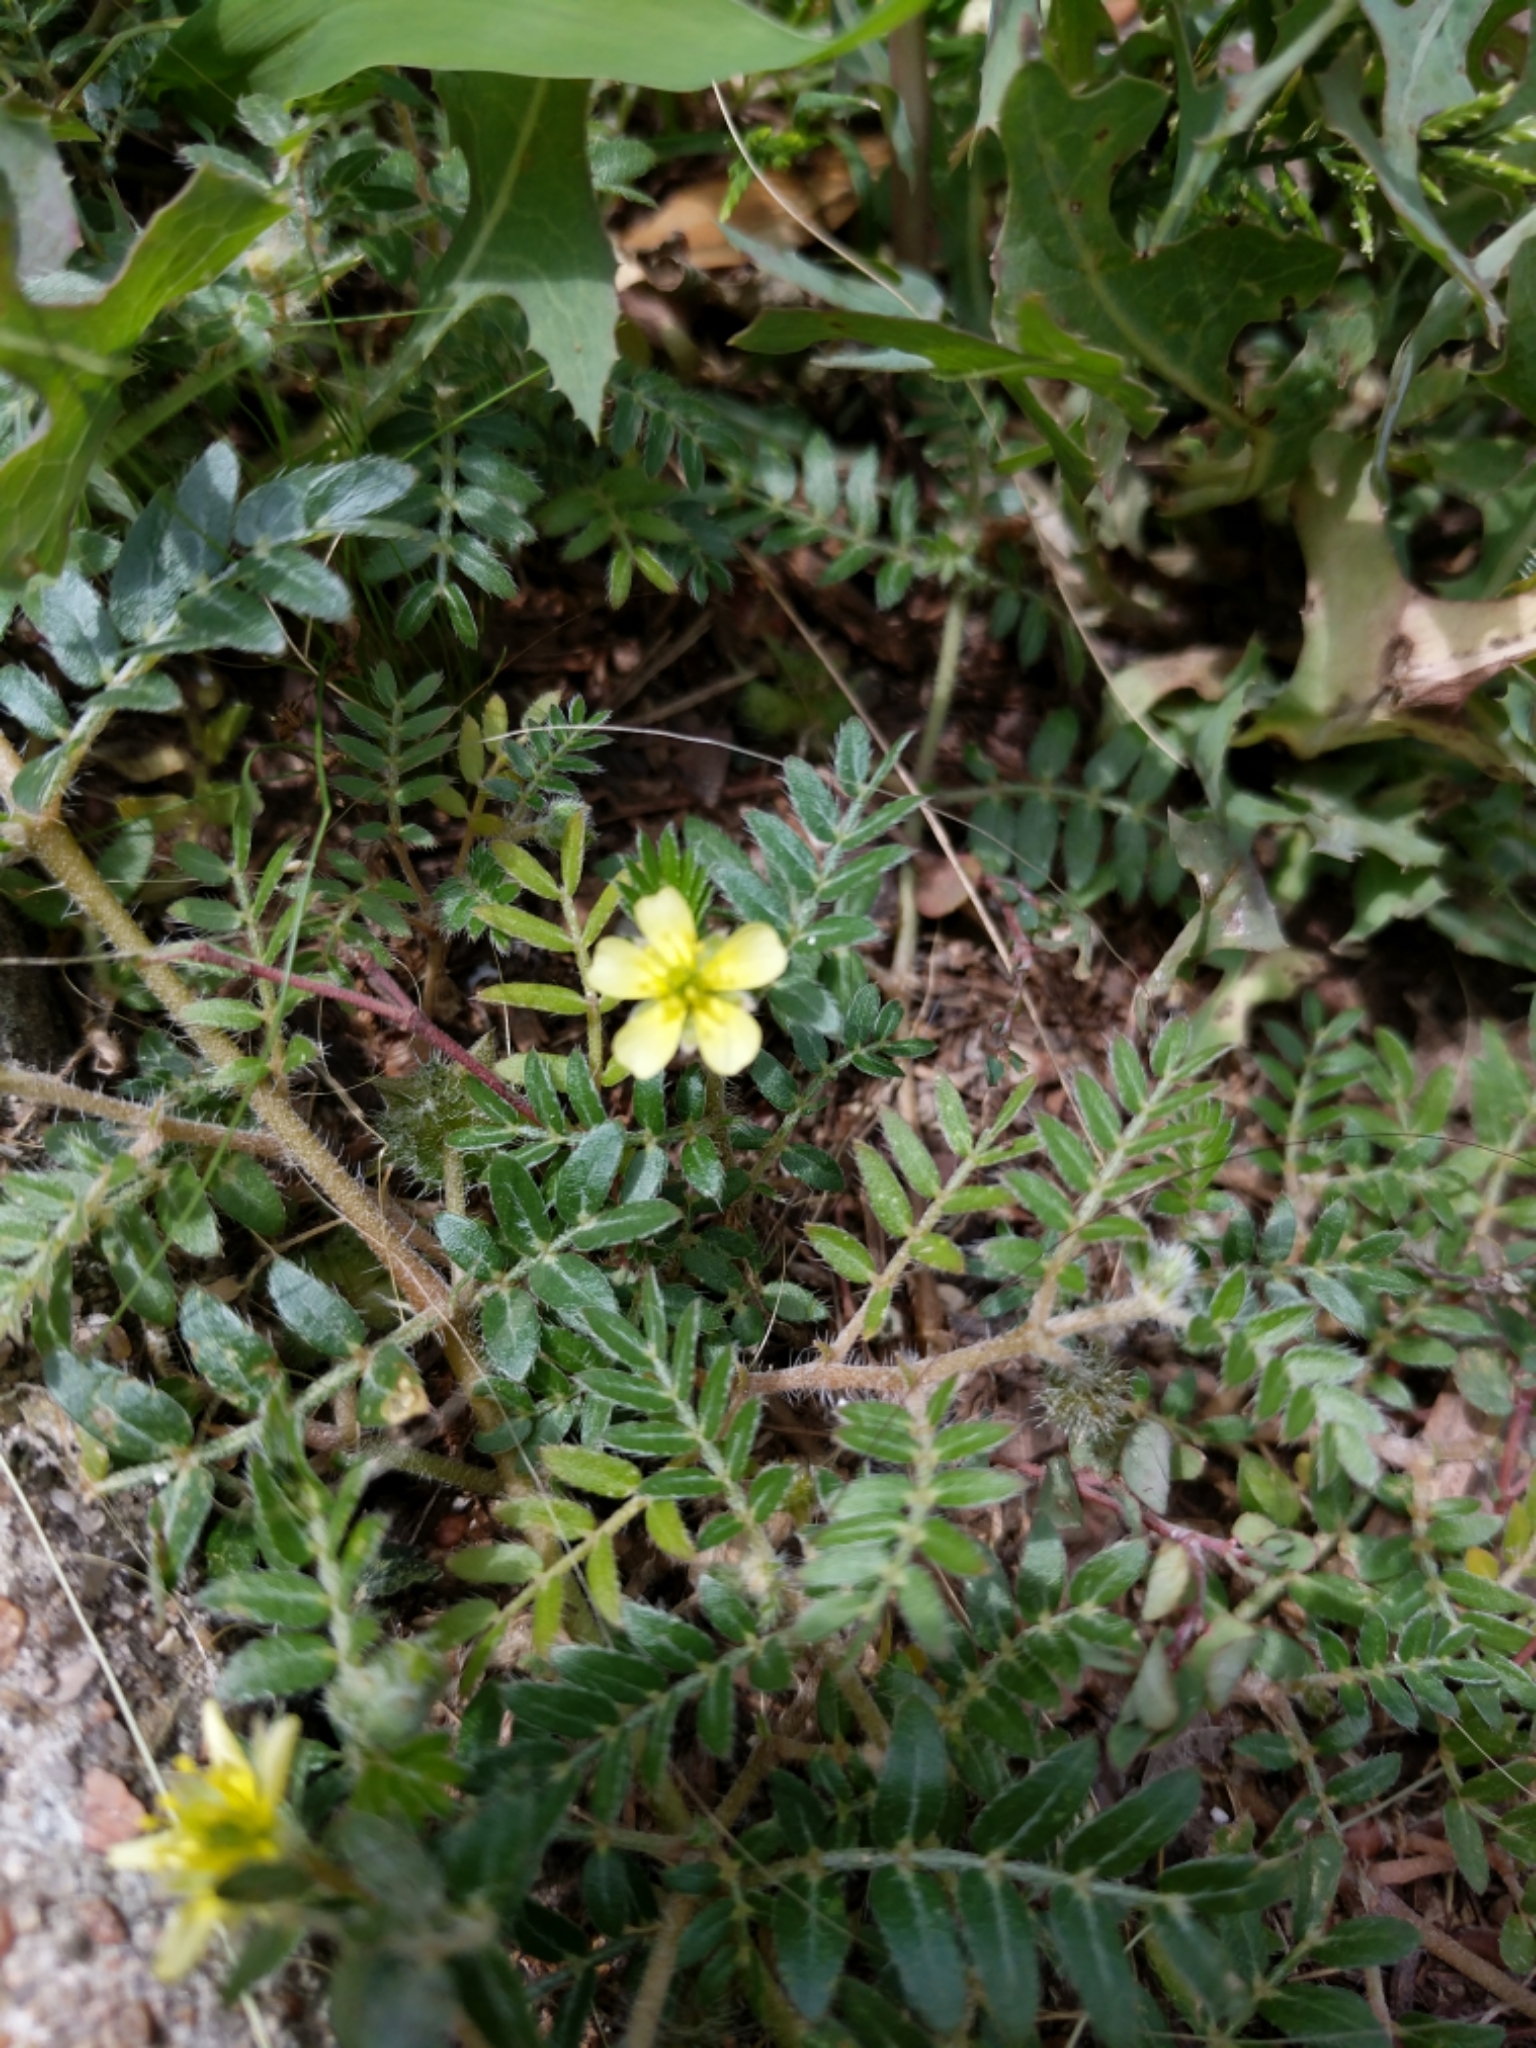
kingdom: Plantae
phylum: Tracheophyta
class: Magnoliopsida
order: Zygophyllales
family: Zygophyllaceae
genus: Tribulus
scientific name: Tribulus terrestris
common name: Puncturevine
